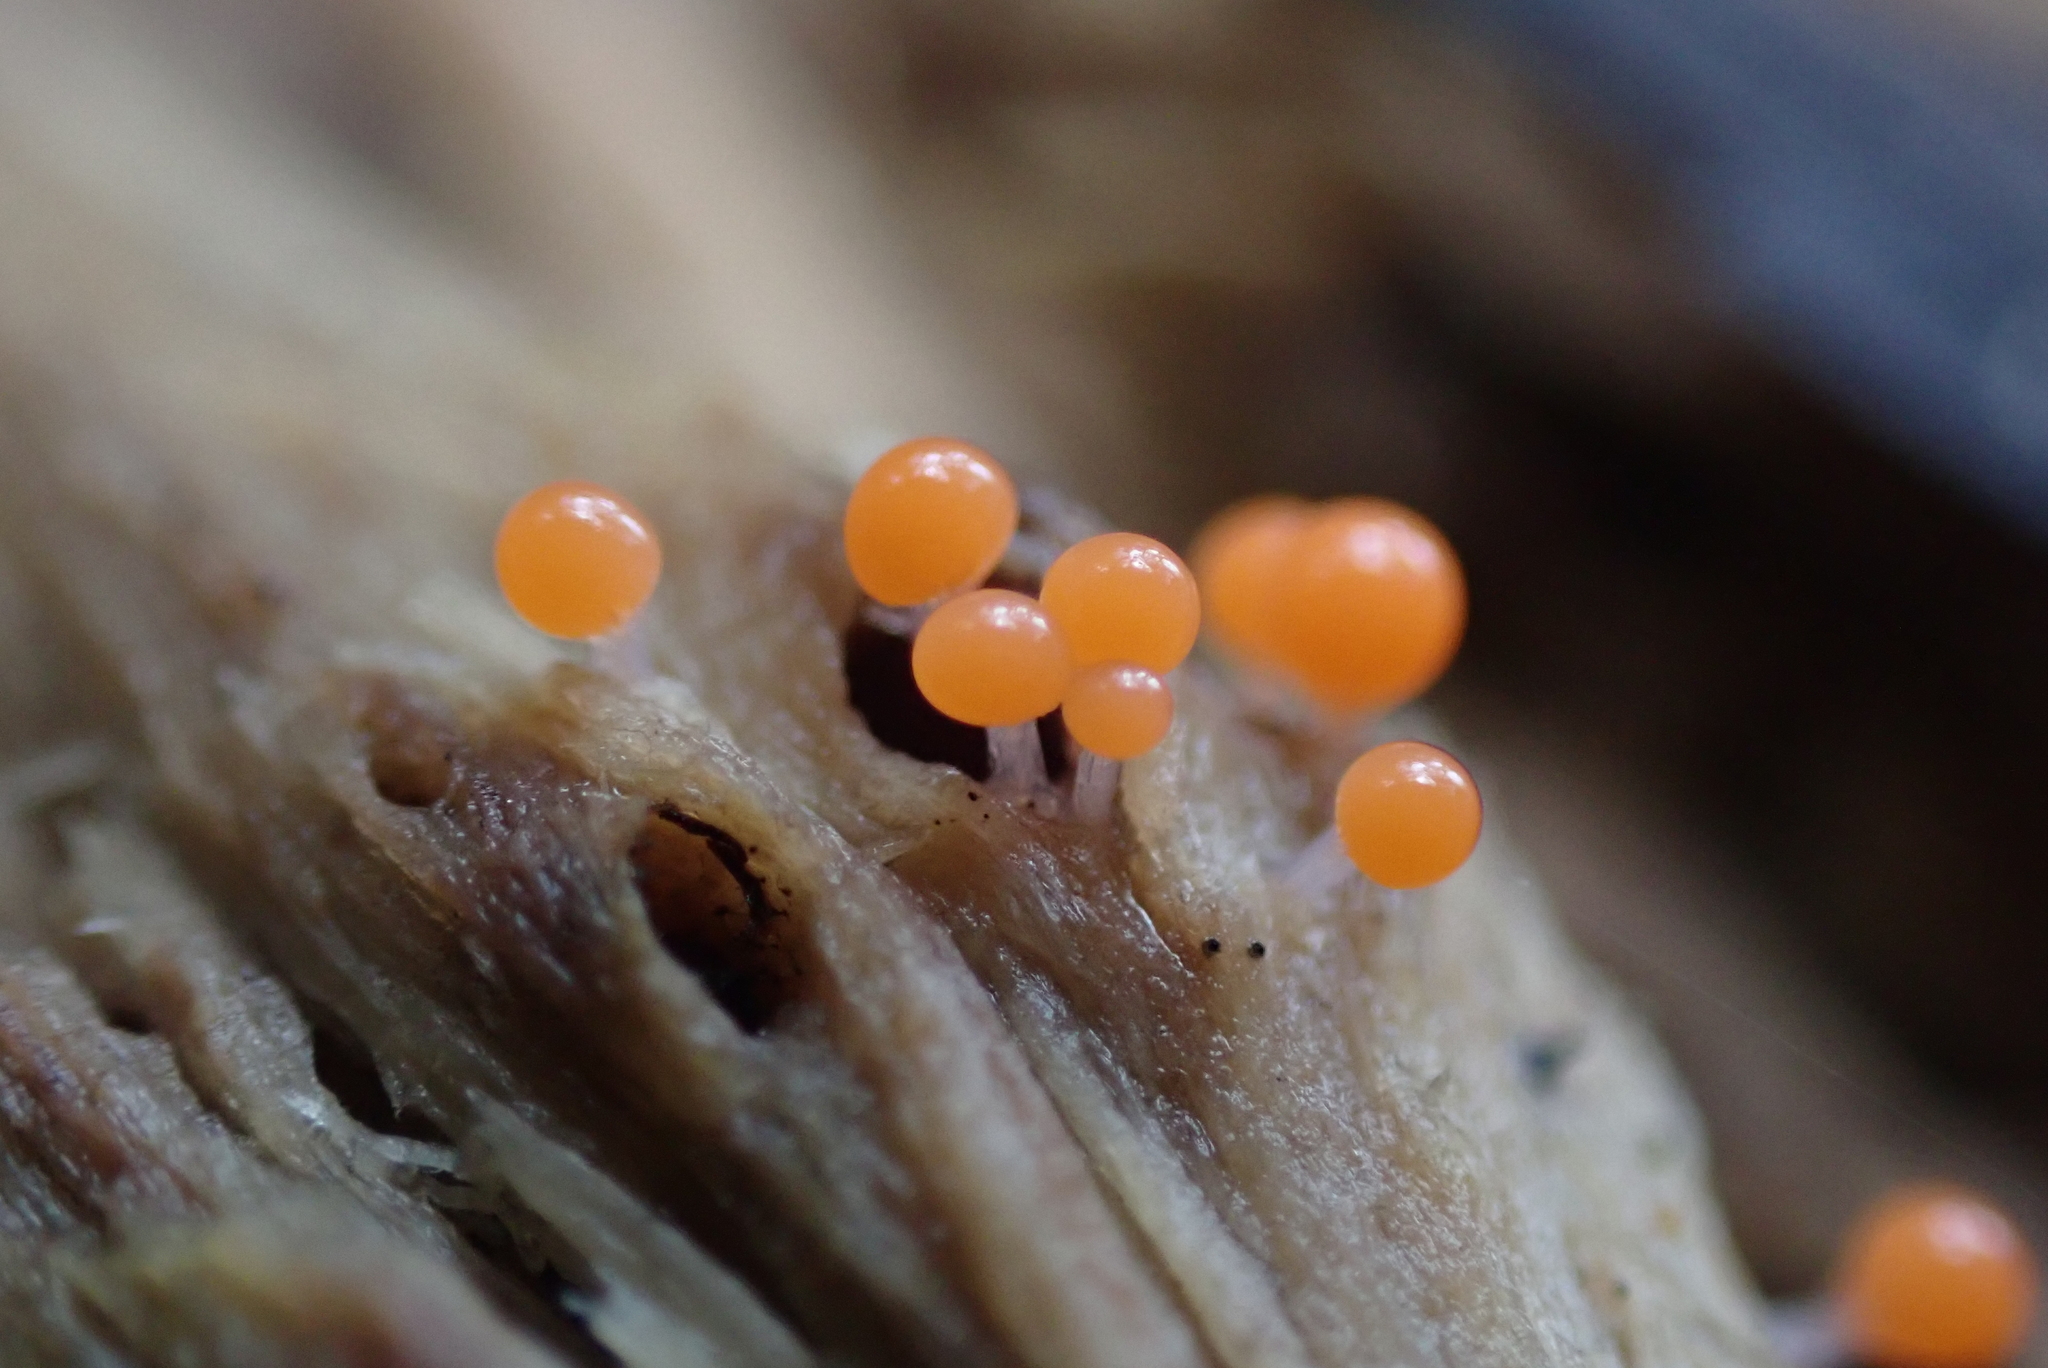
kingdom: Protozoa
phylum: Mycetozoa
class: Myxomycetes
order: Trichiales
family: Arcyriaceae
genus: Hemitrichia
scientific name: Hemitrichia decipiens
